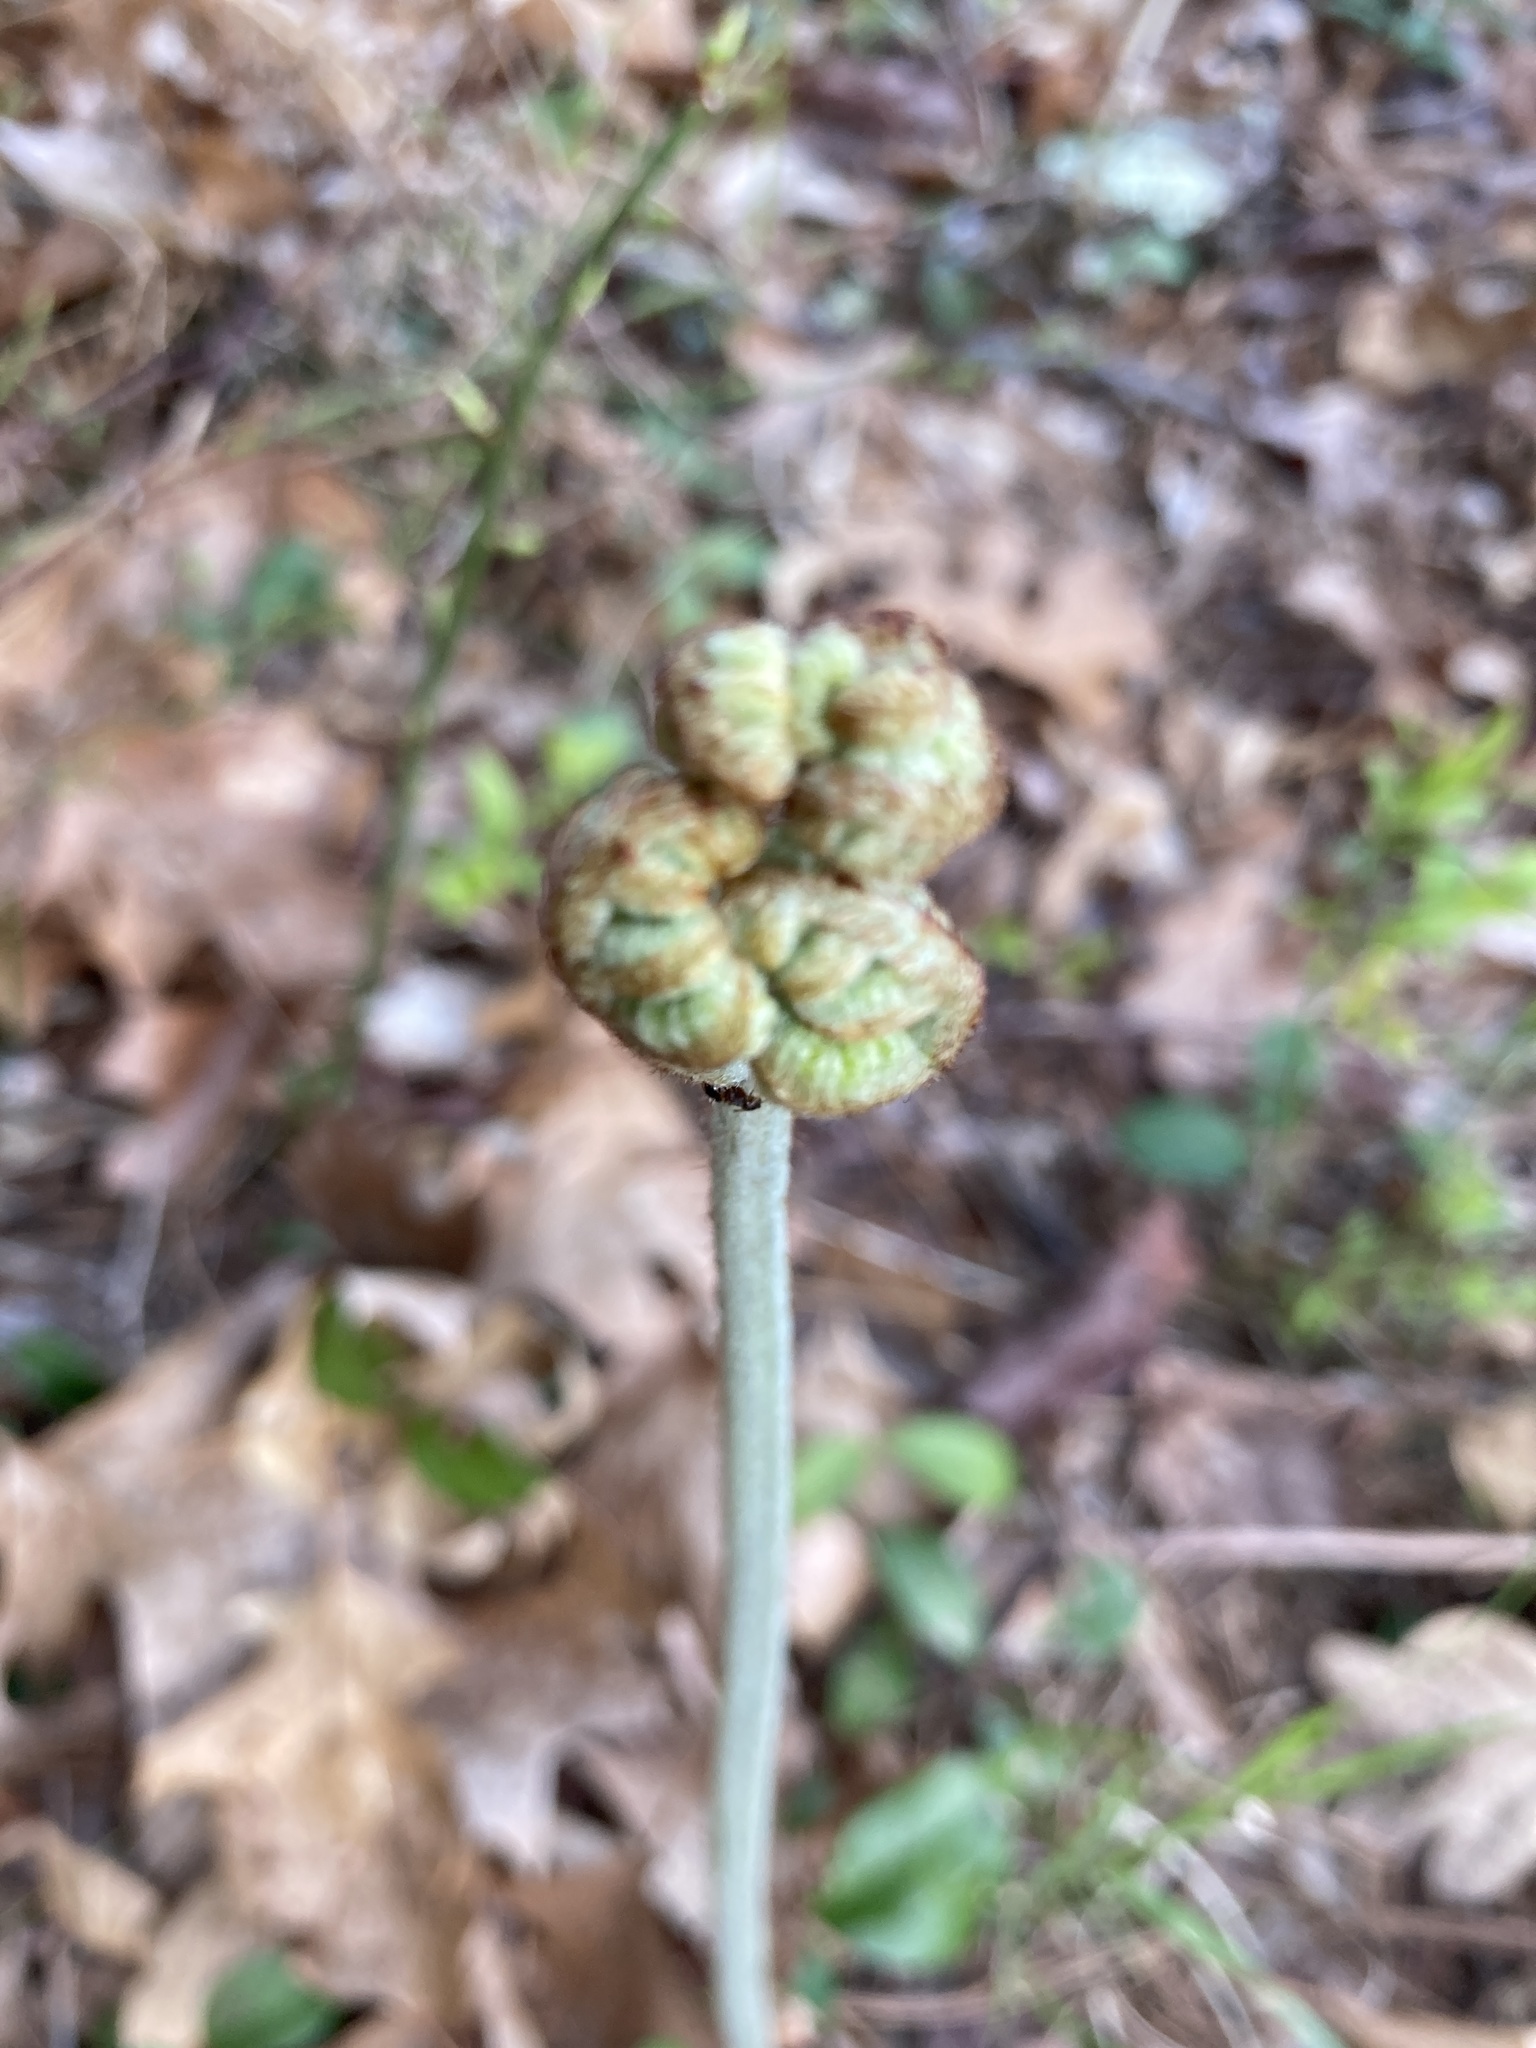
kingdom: Plantae
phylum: Tracheophyta
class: Polypodiopsida
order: Polypodiales
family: Dennstaedtiaceae
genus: Pteridium
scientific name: Pteridium aquilinum
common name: Bracken
